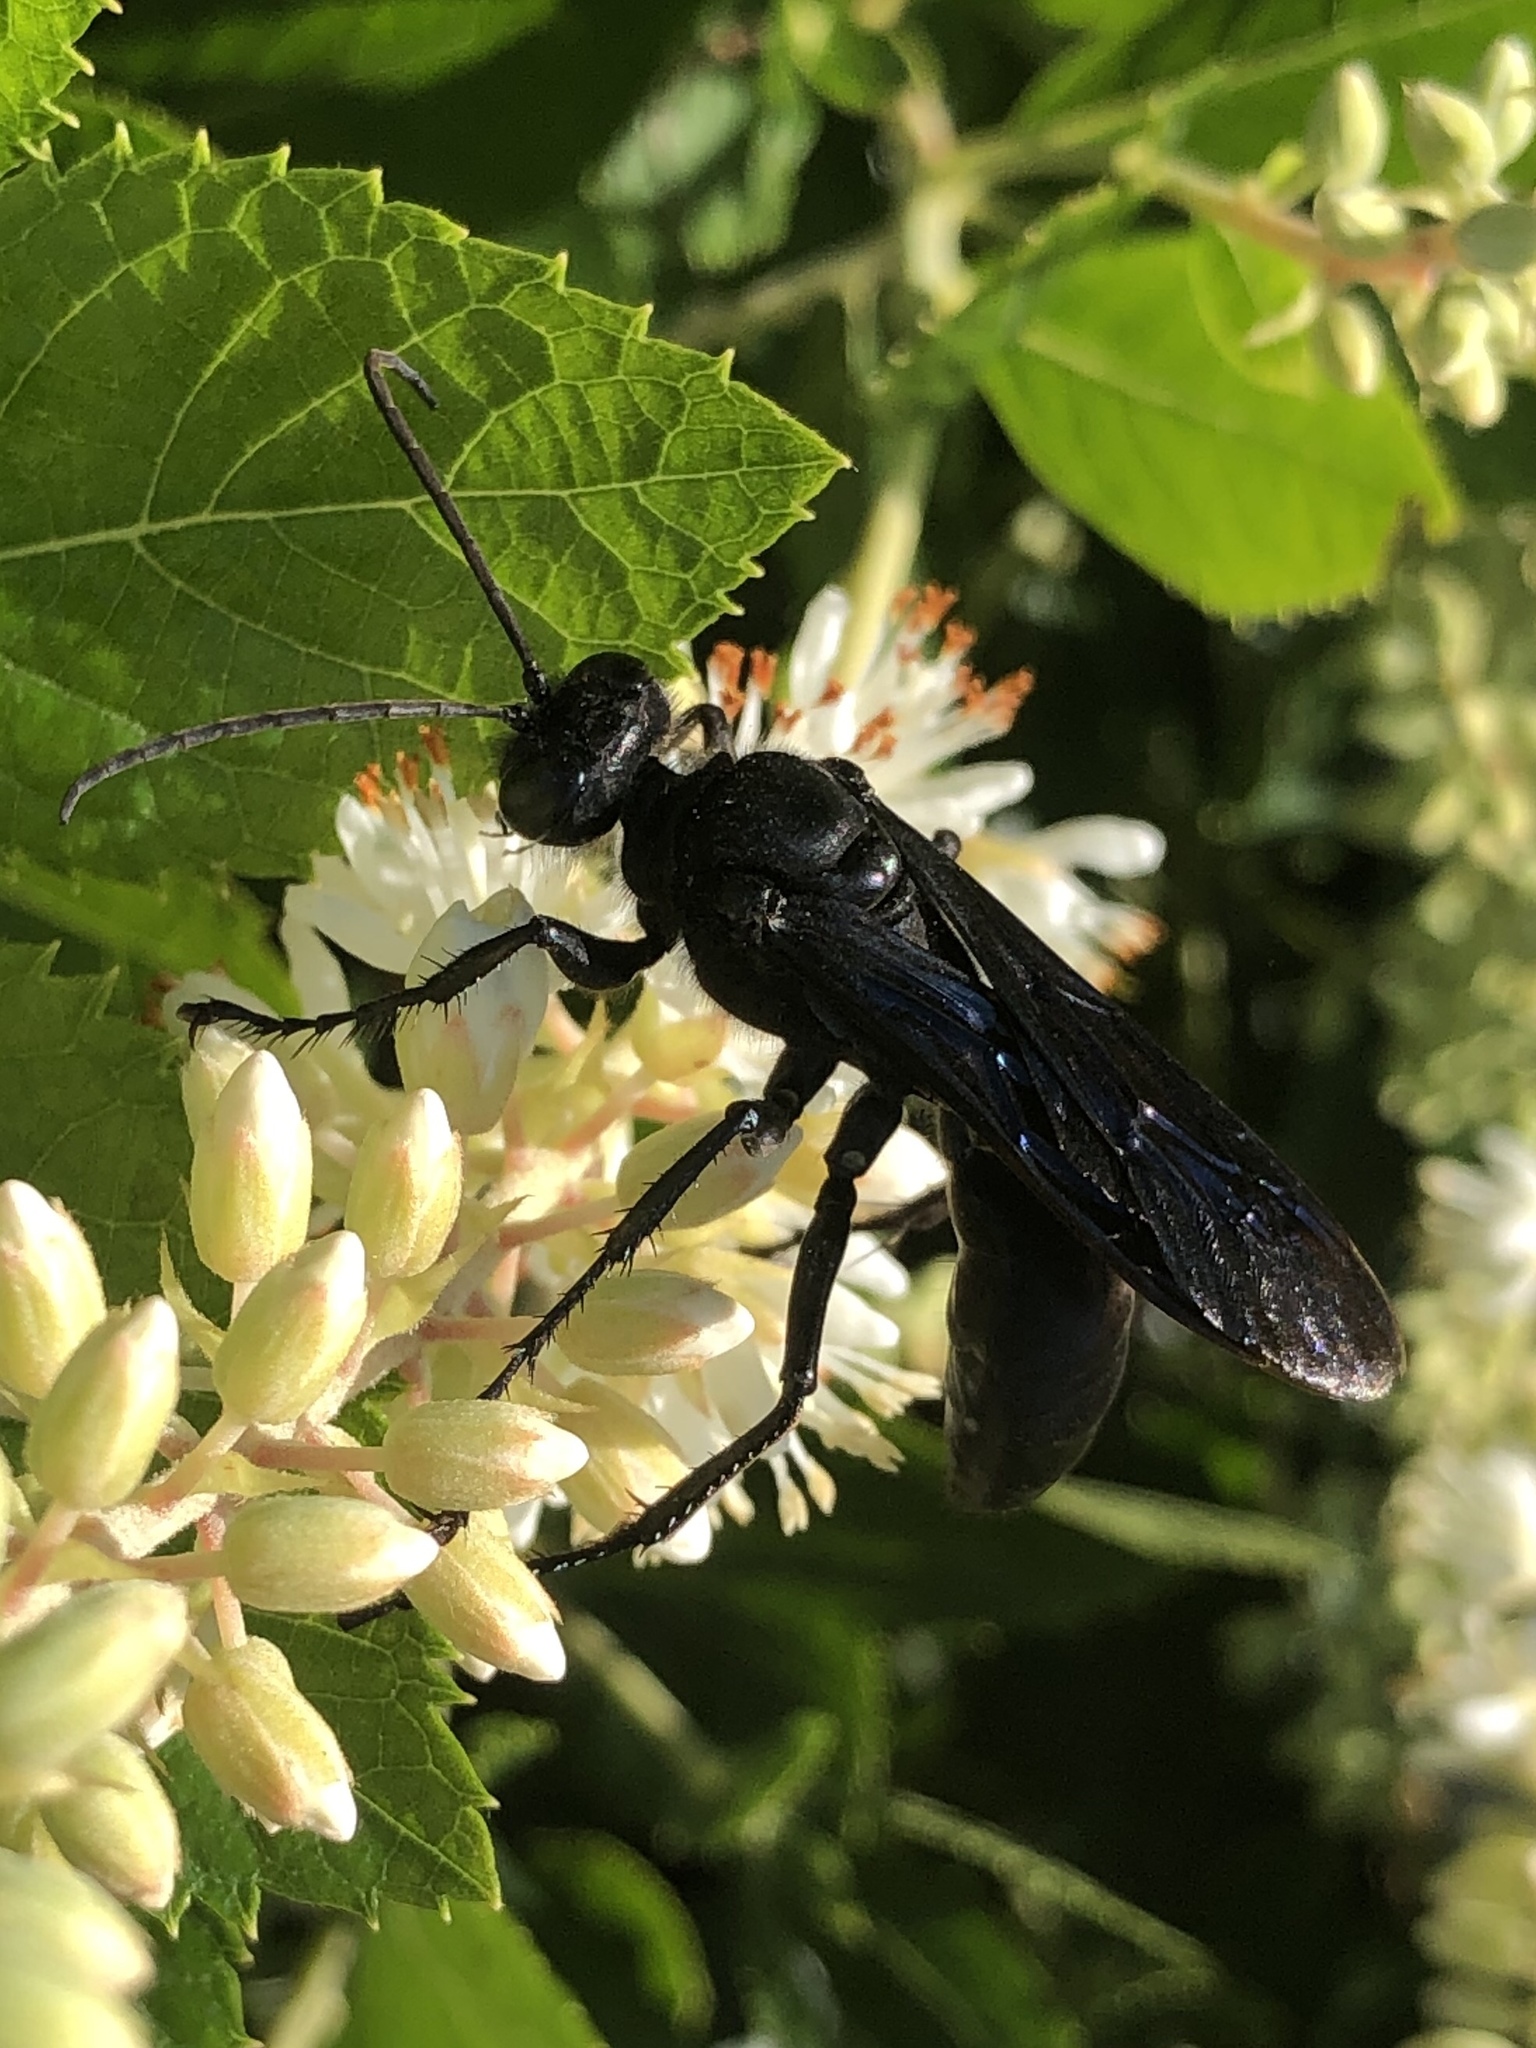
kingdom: Animalia
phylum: Arthropoda
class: Insecta
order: Hymenoptera
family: Sphecidae
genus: Sphex
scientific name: Sphex pensylvanicus
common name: Great black digger wasp
